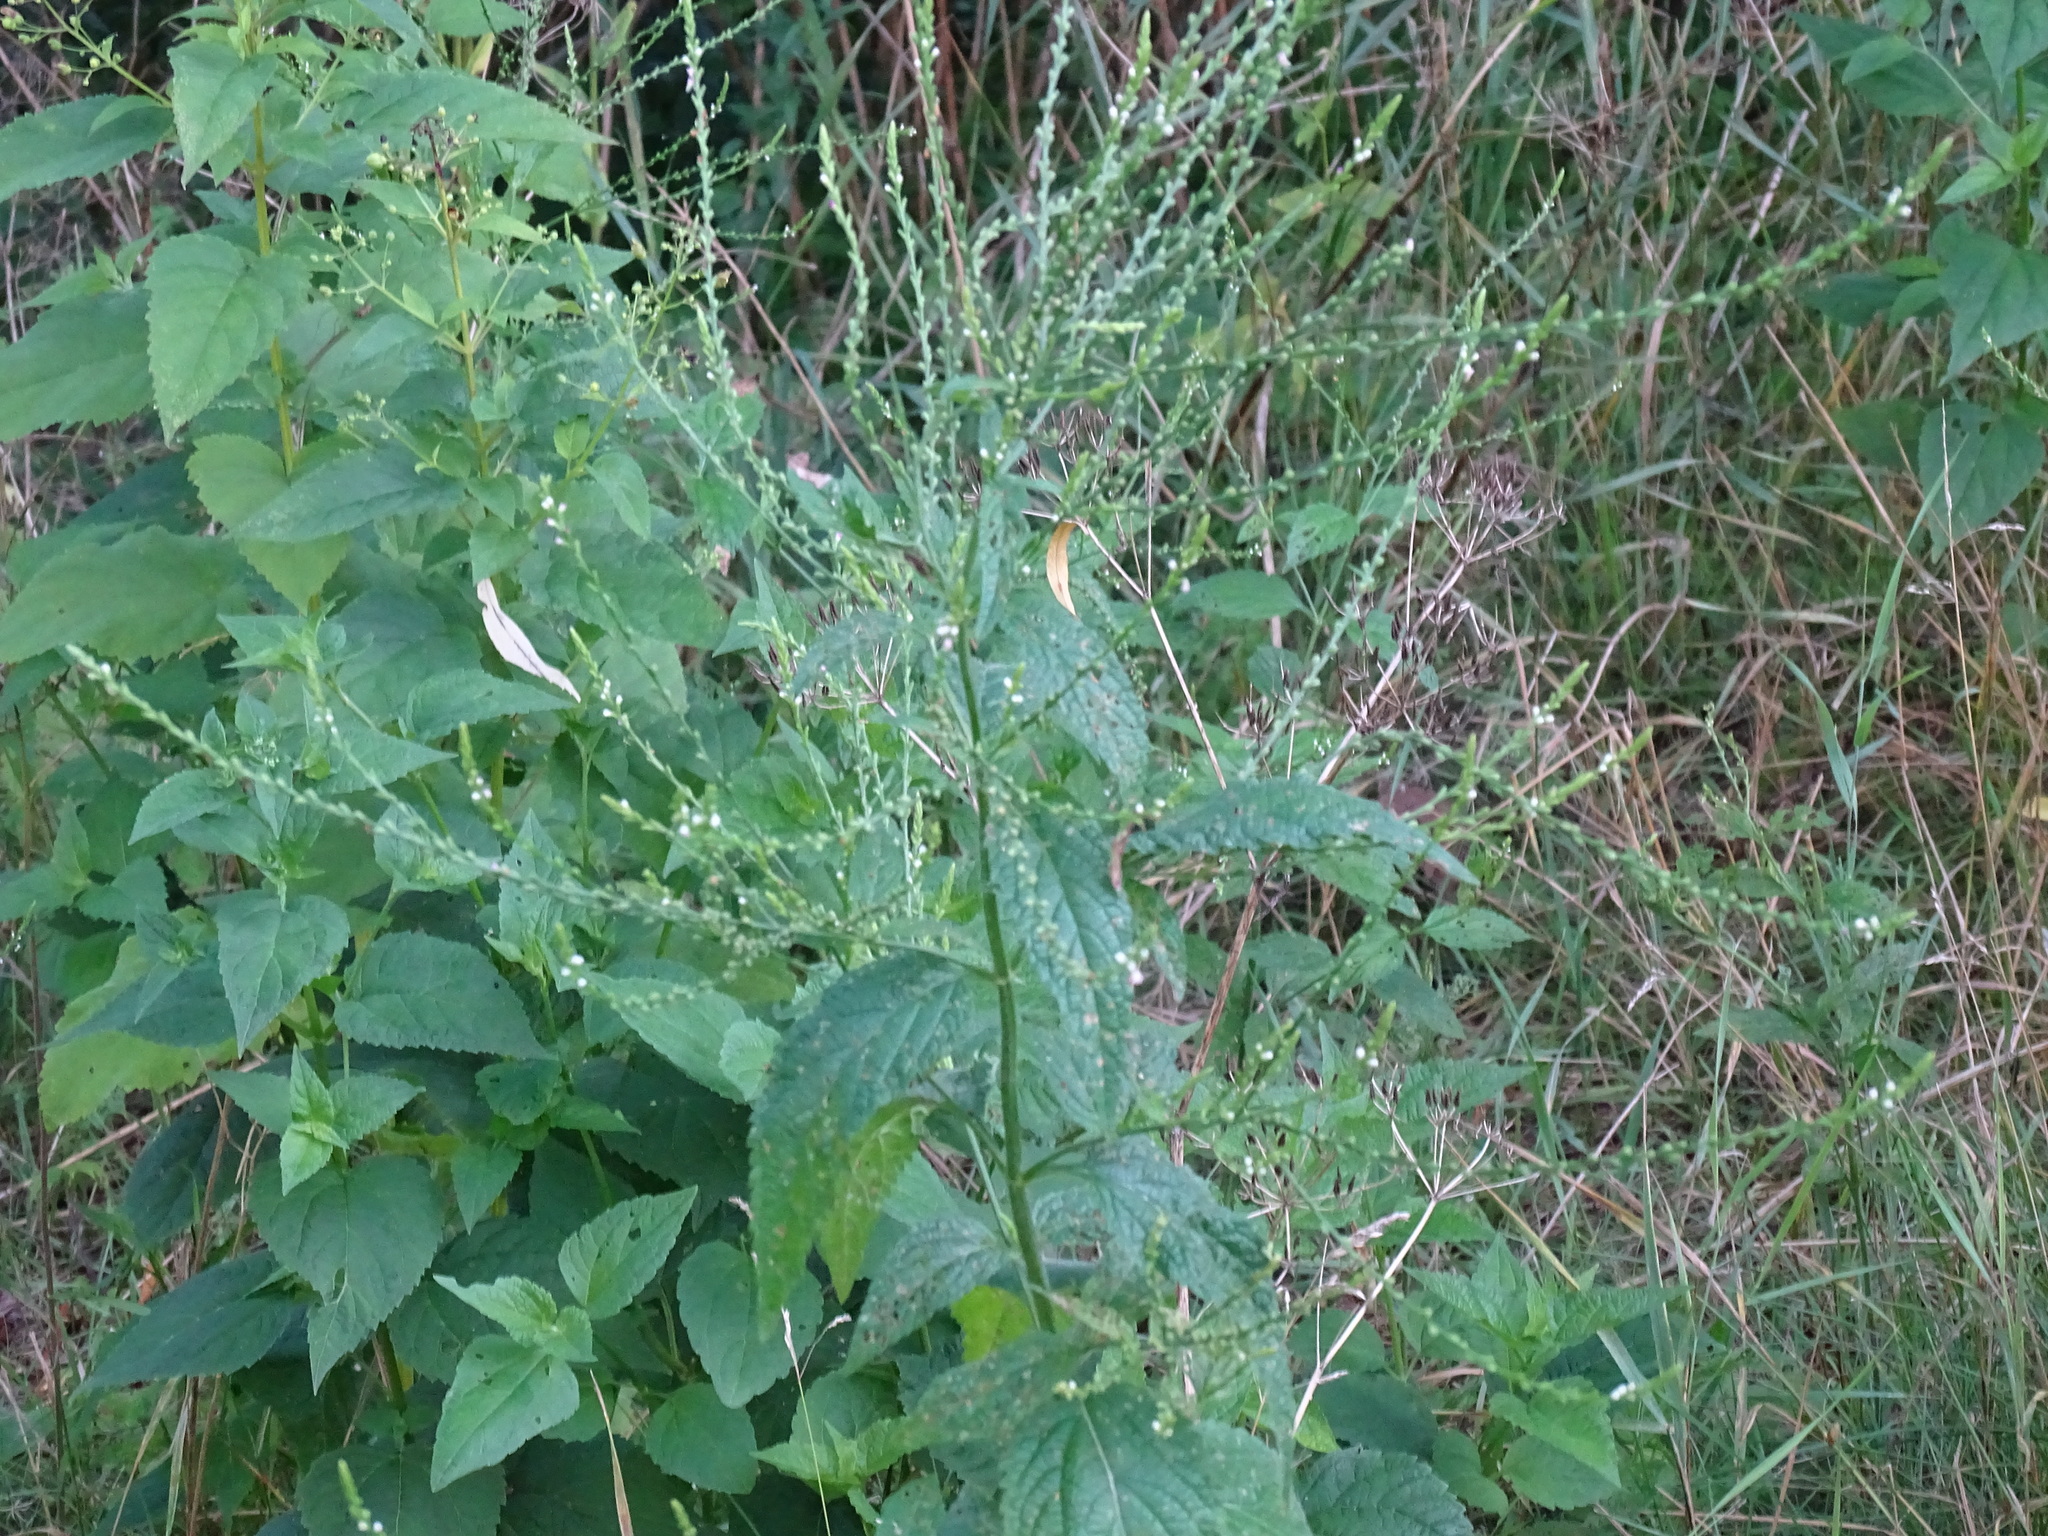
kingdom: Plantae
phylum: Tracheophyta
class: Magnoliopsida
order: Lamiales
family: Verbenaceae
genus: Verbena
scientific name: Verbena urticifolia
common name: Nettle-leaved vervain
